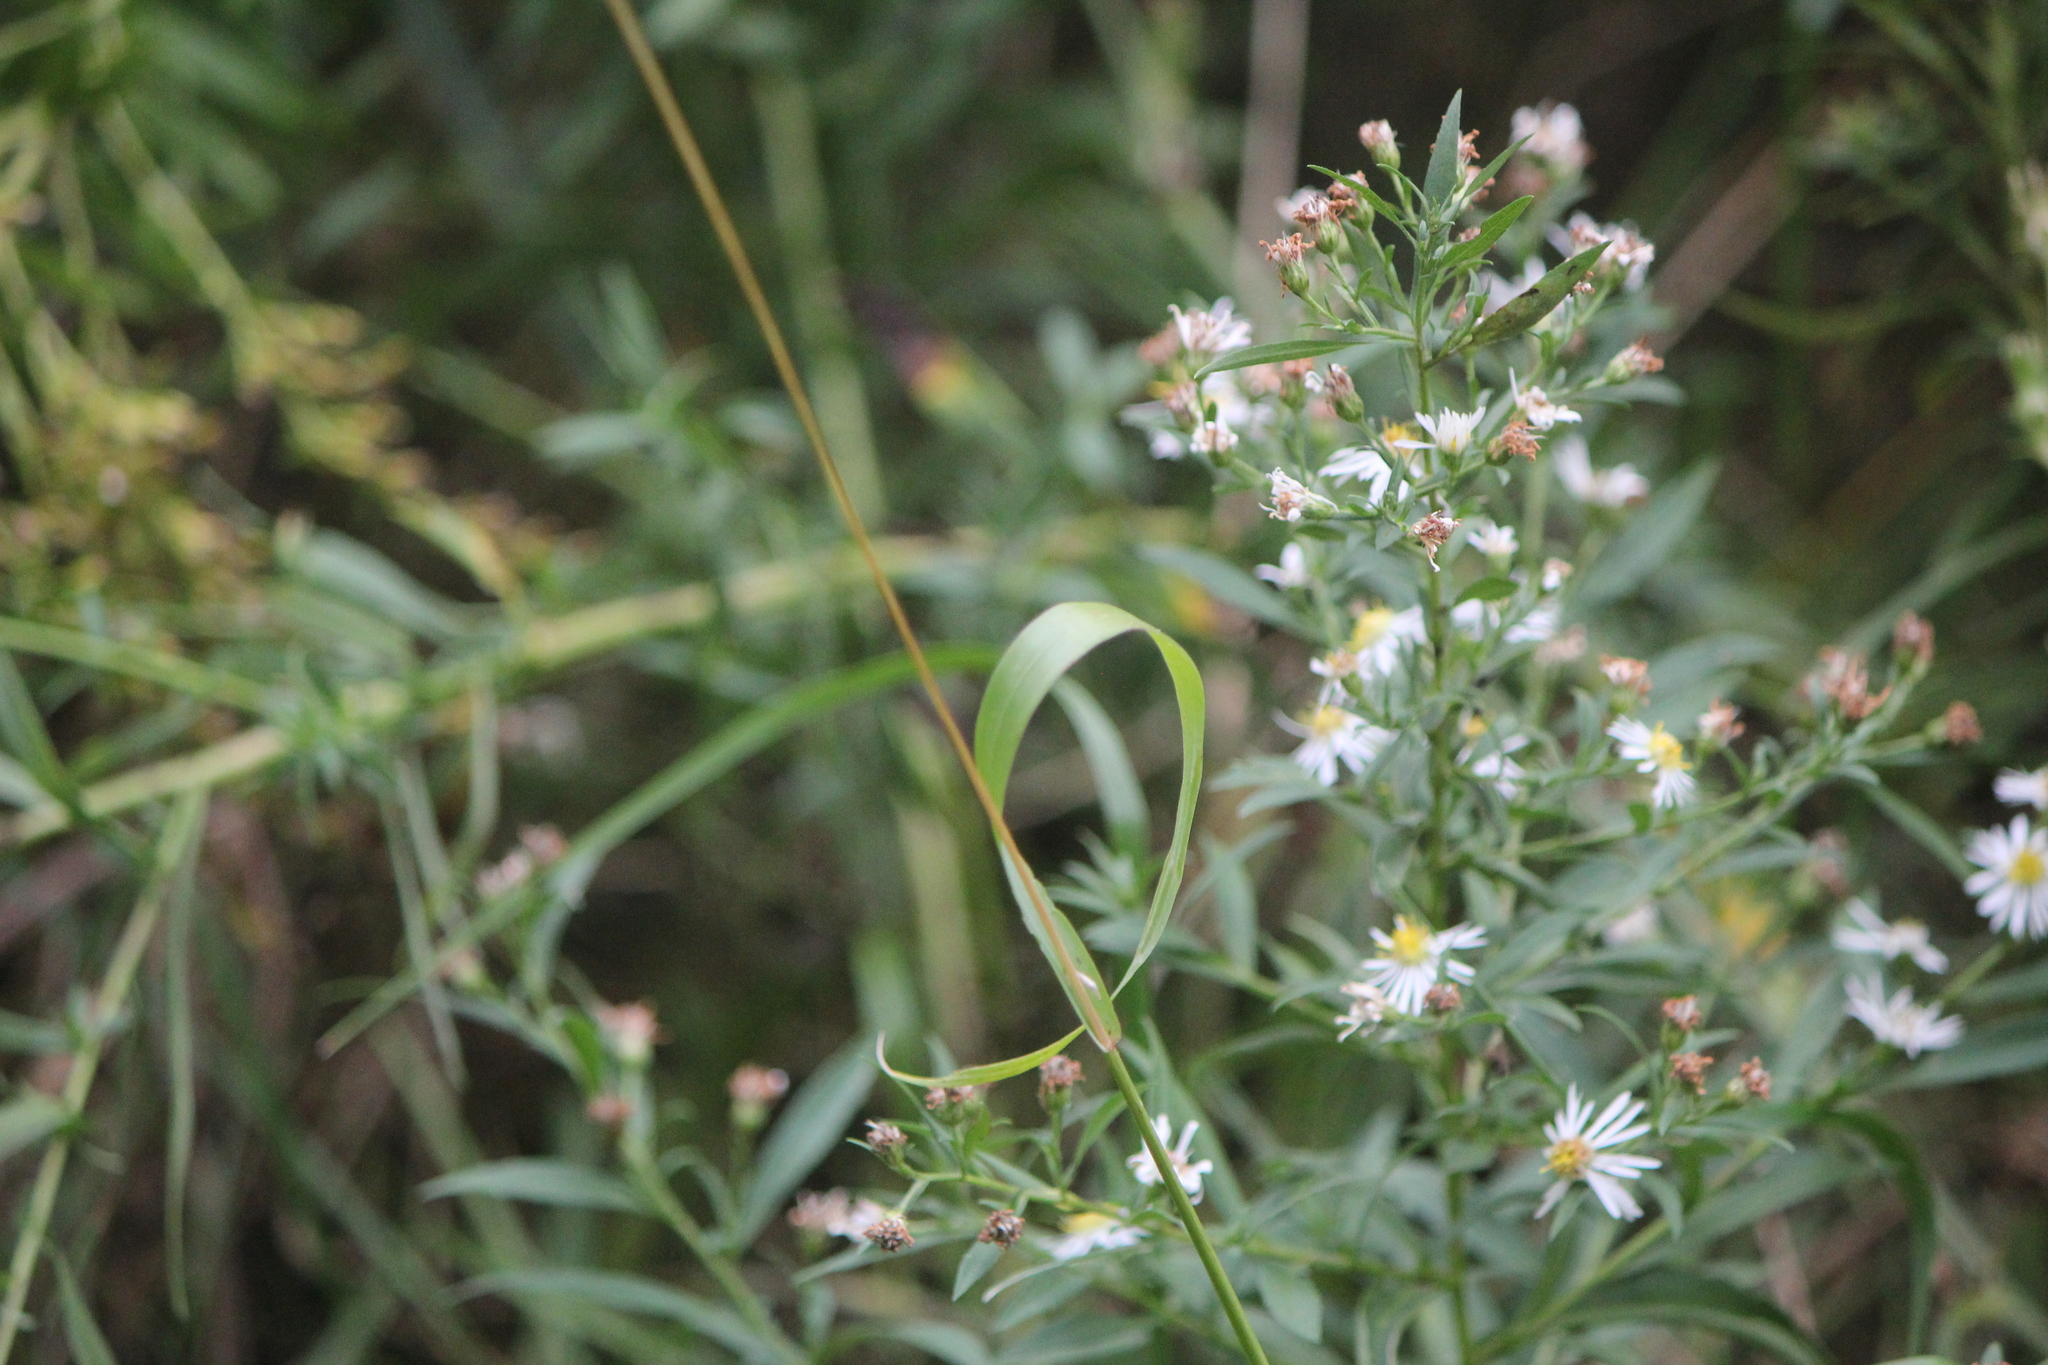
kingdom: Plantae
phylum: Tracheophyta
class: Liliopsida
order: Poales
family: Poaceae
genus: Setaria
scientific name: Setaria pumila
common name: Yellow bristle-grass
